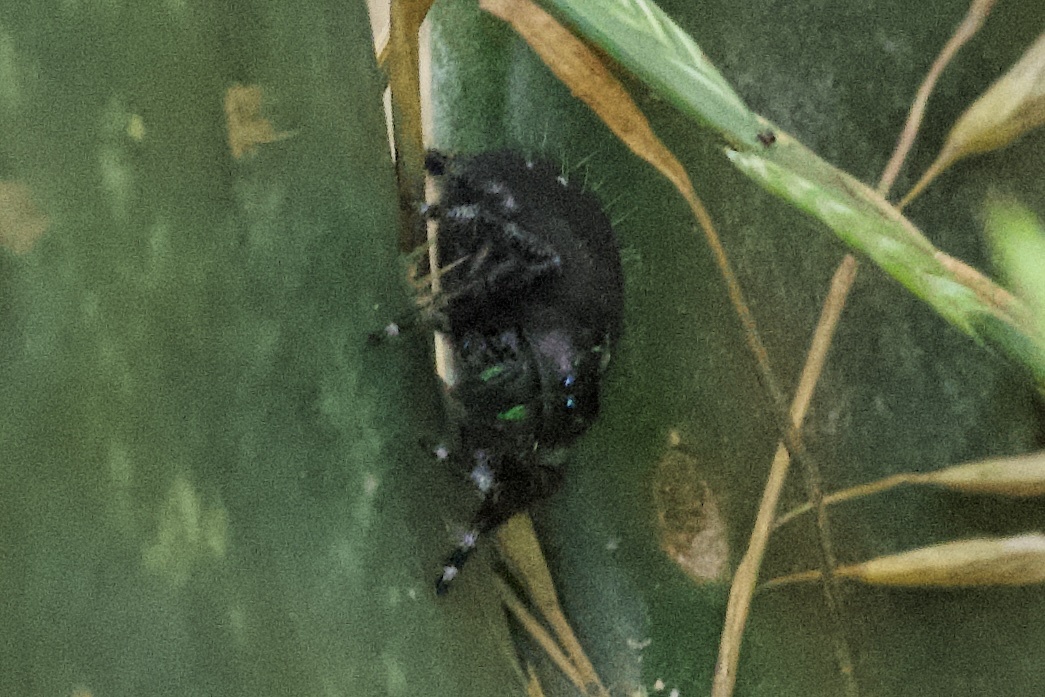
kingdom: Animalia
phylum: Arthropoda
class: Arachnida
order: Araneae
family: Salticidae
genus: Phidippus
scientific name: Phidippus audax
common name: Bold jumper
